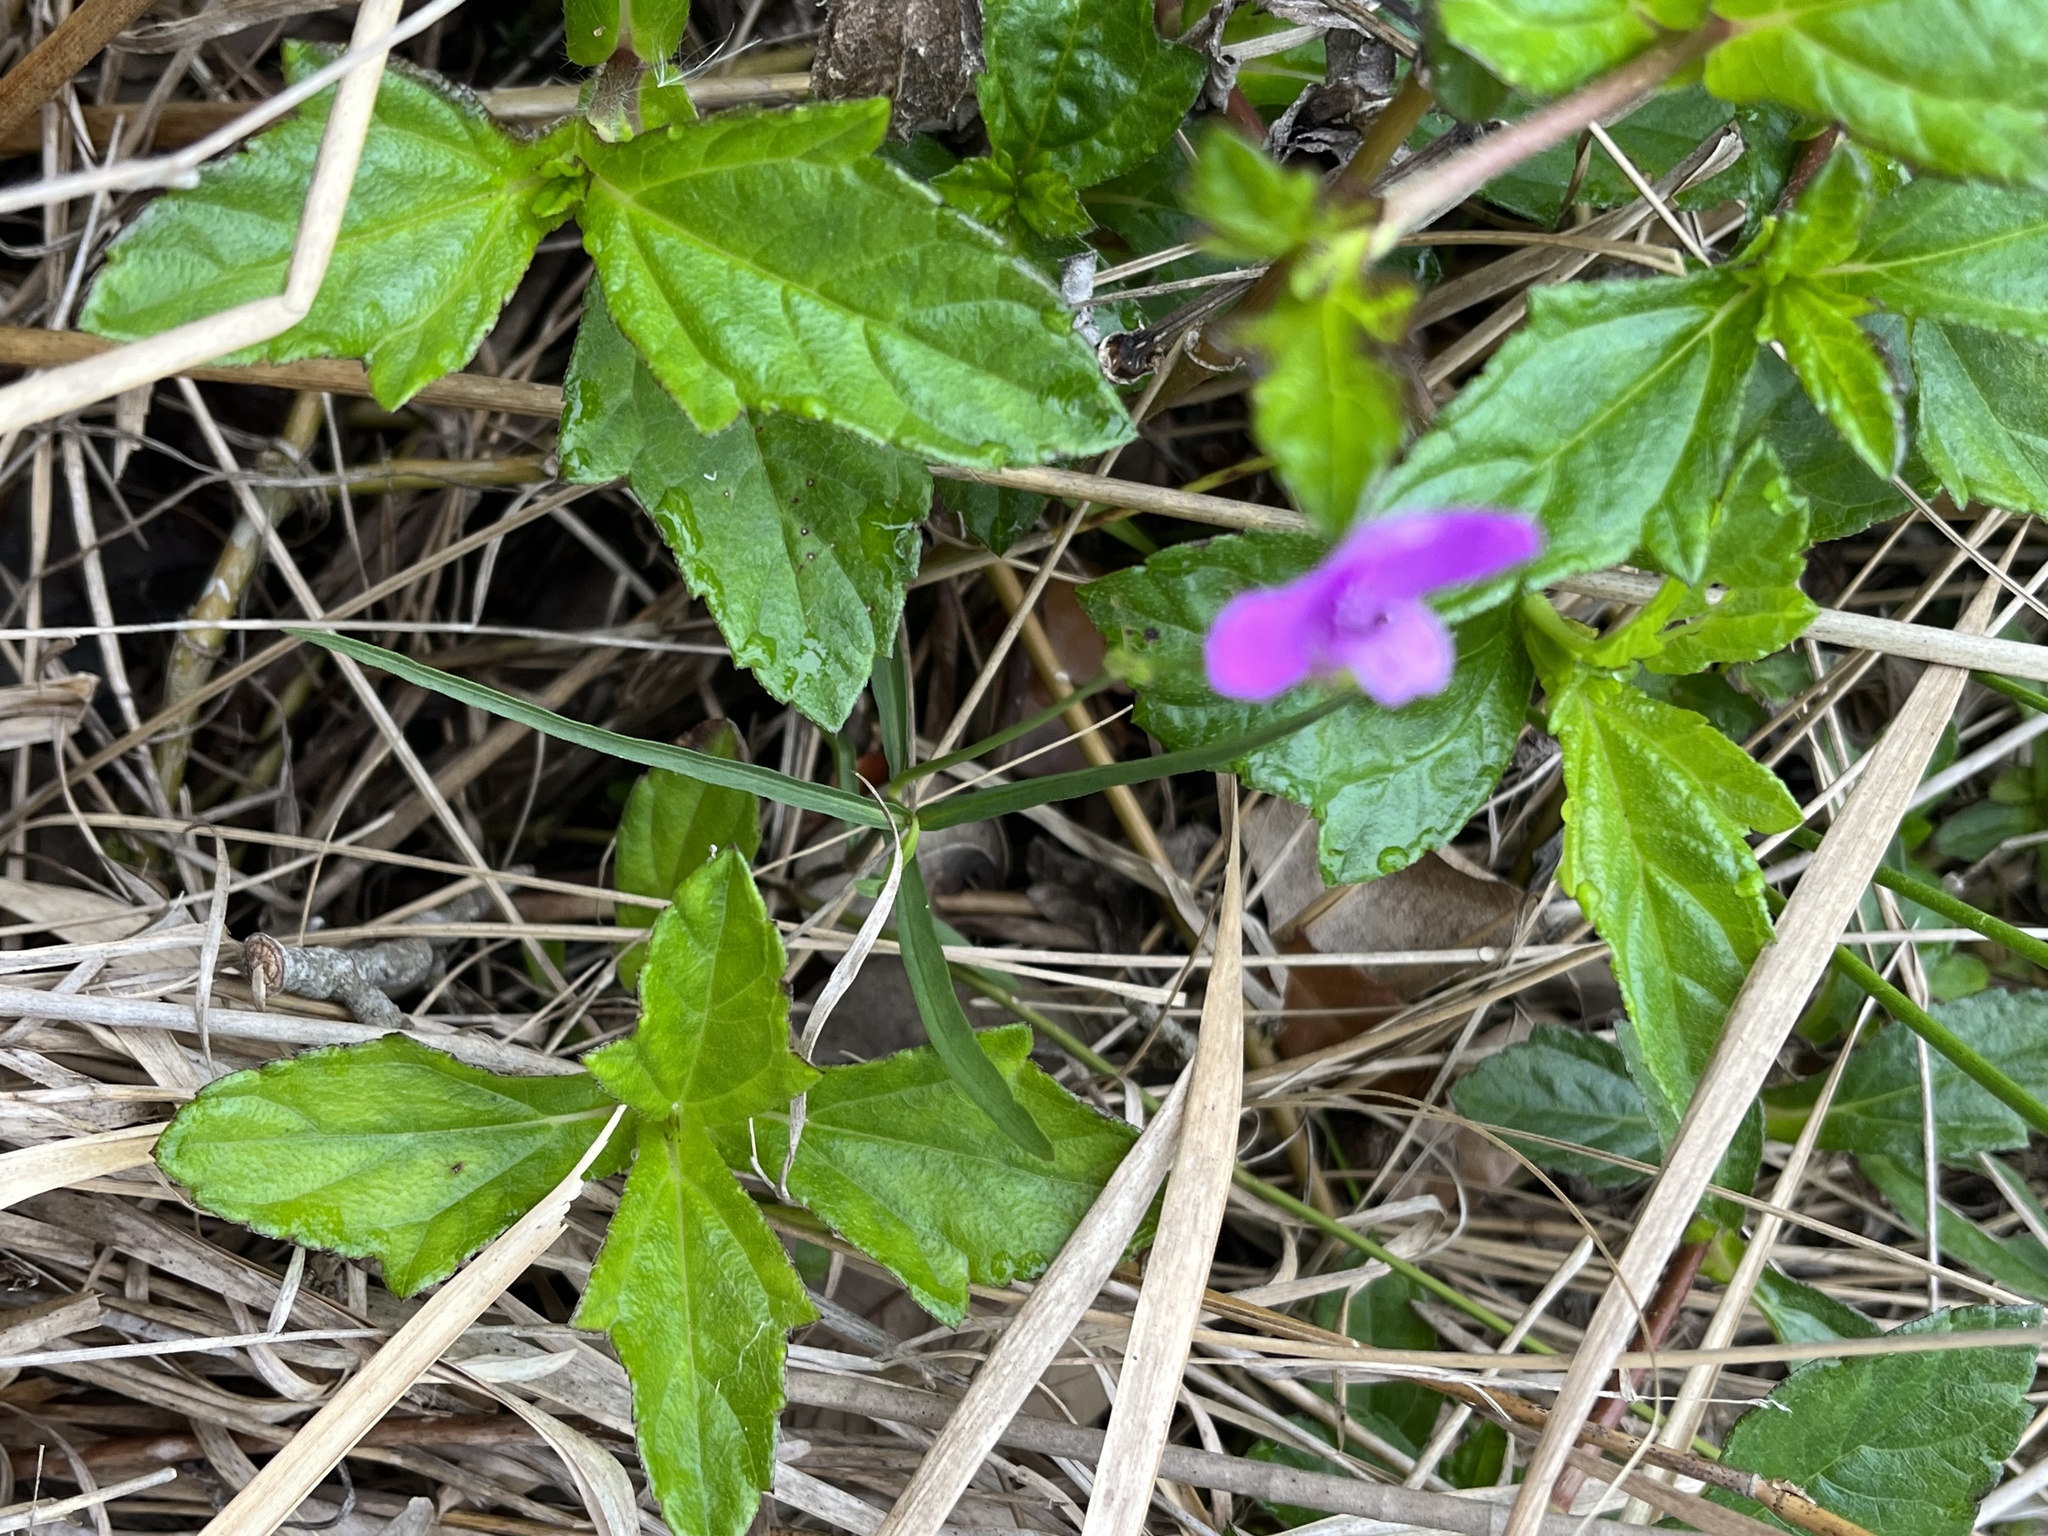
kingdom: Plantae
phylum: Tracheophyta
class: Magnoliopsida
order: Lamiales
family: Acanthaceae
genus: Dianthera
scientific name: Dianthera angusta
